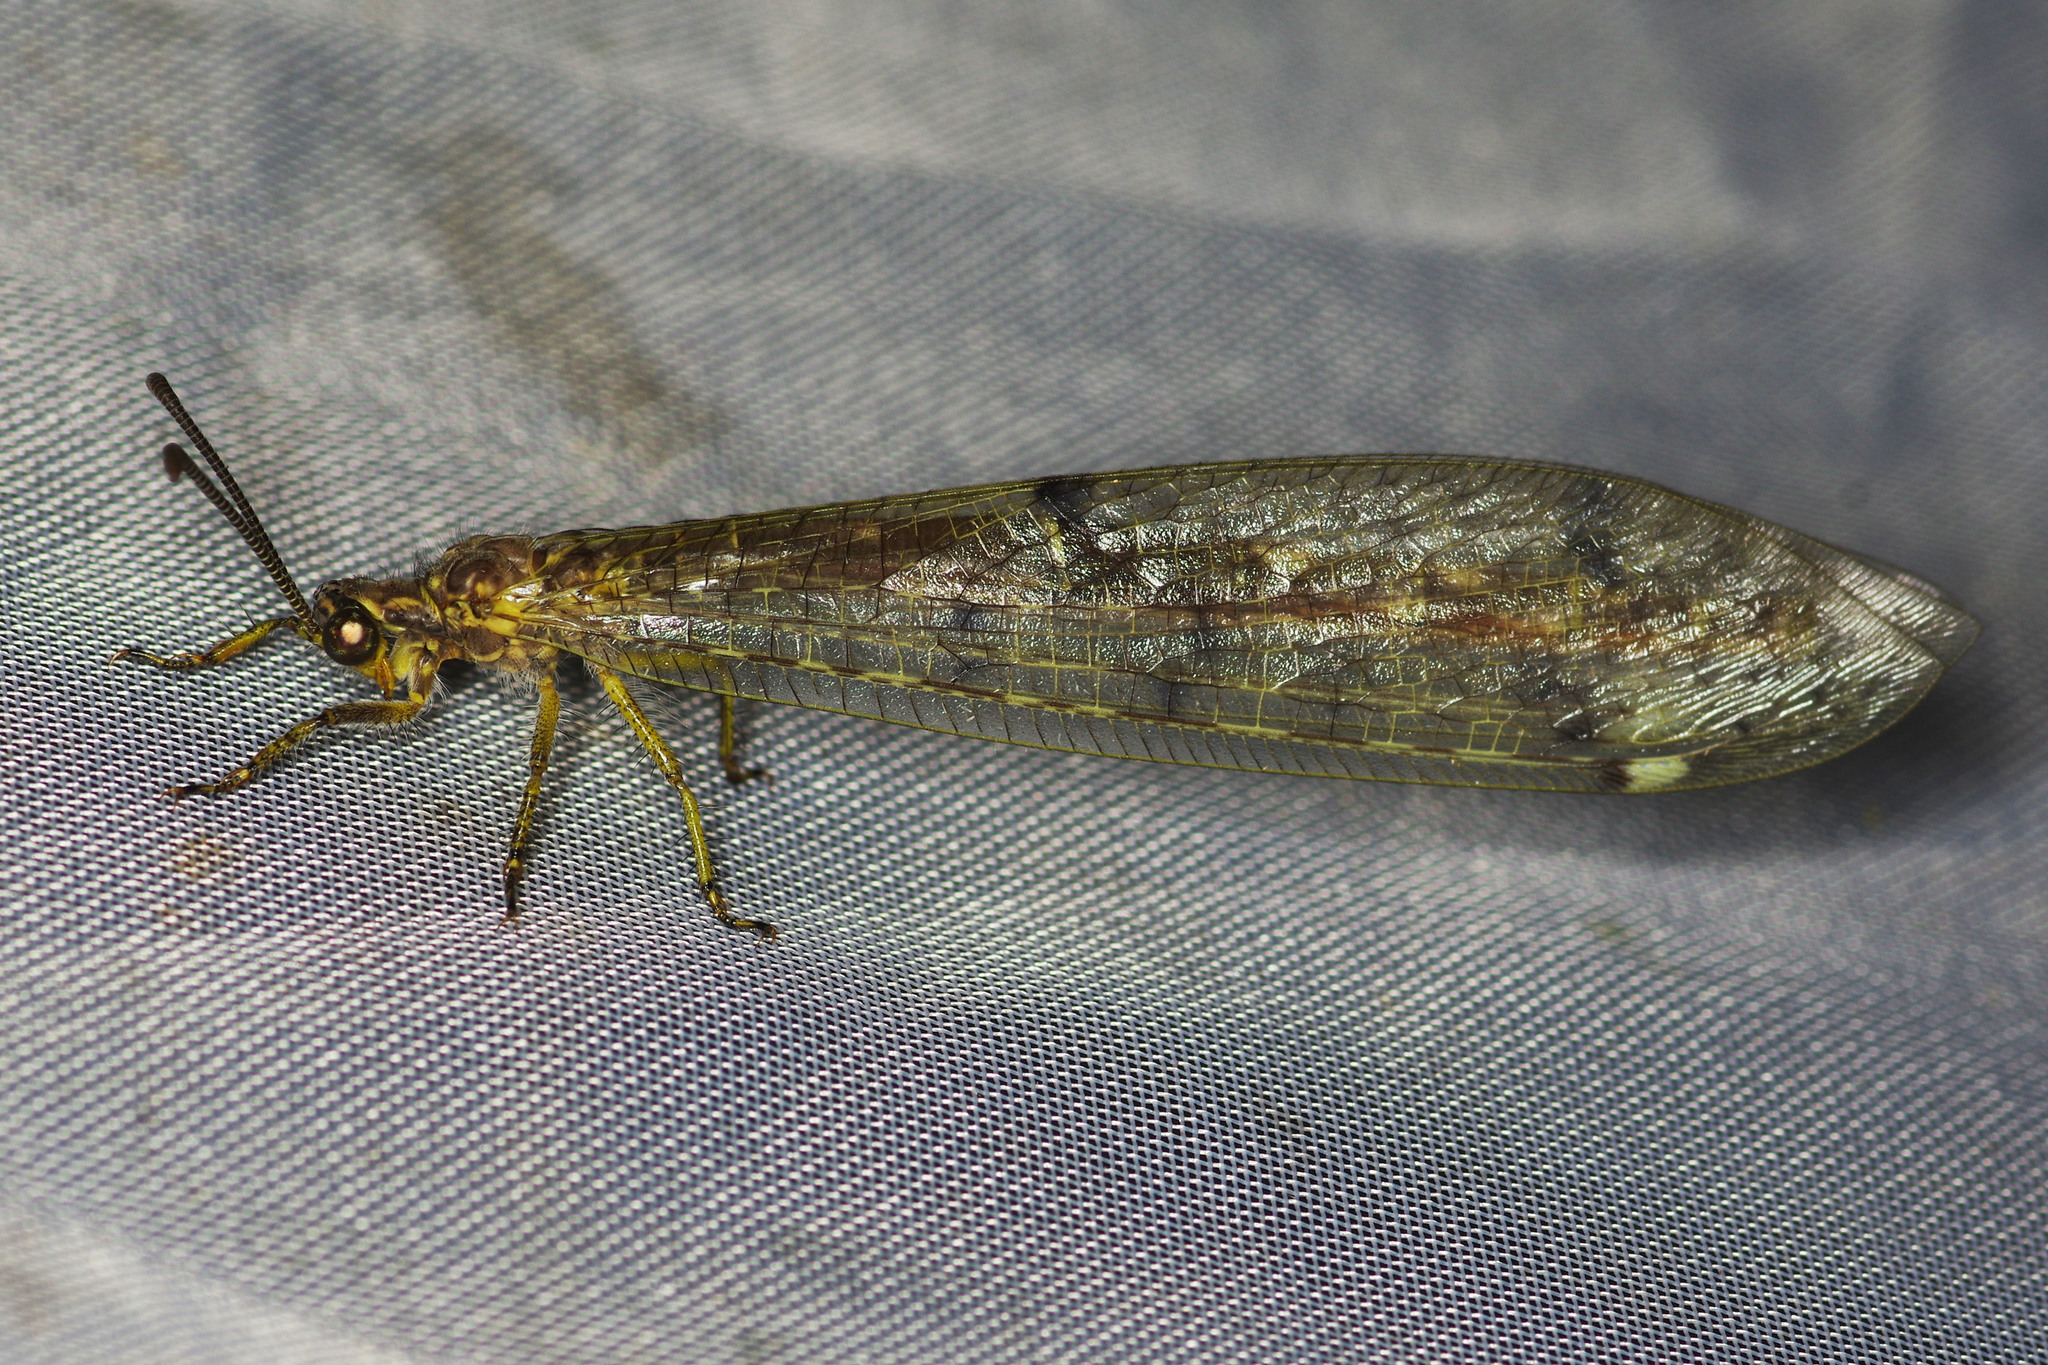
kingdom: Animalia
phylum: Arthropoda
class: Insecta
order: Neuroptera
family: Myrmeleontidae
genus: Distoleon
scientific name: Distoleon tetragrammicus
